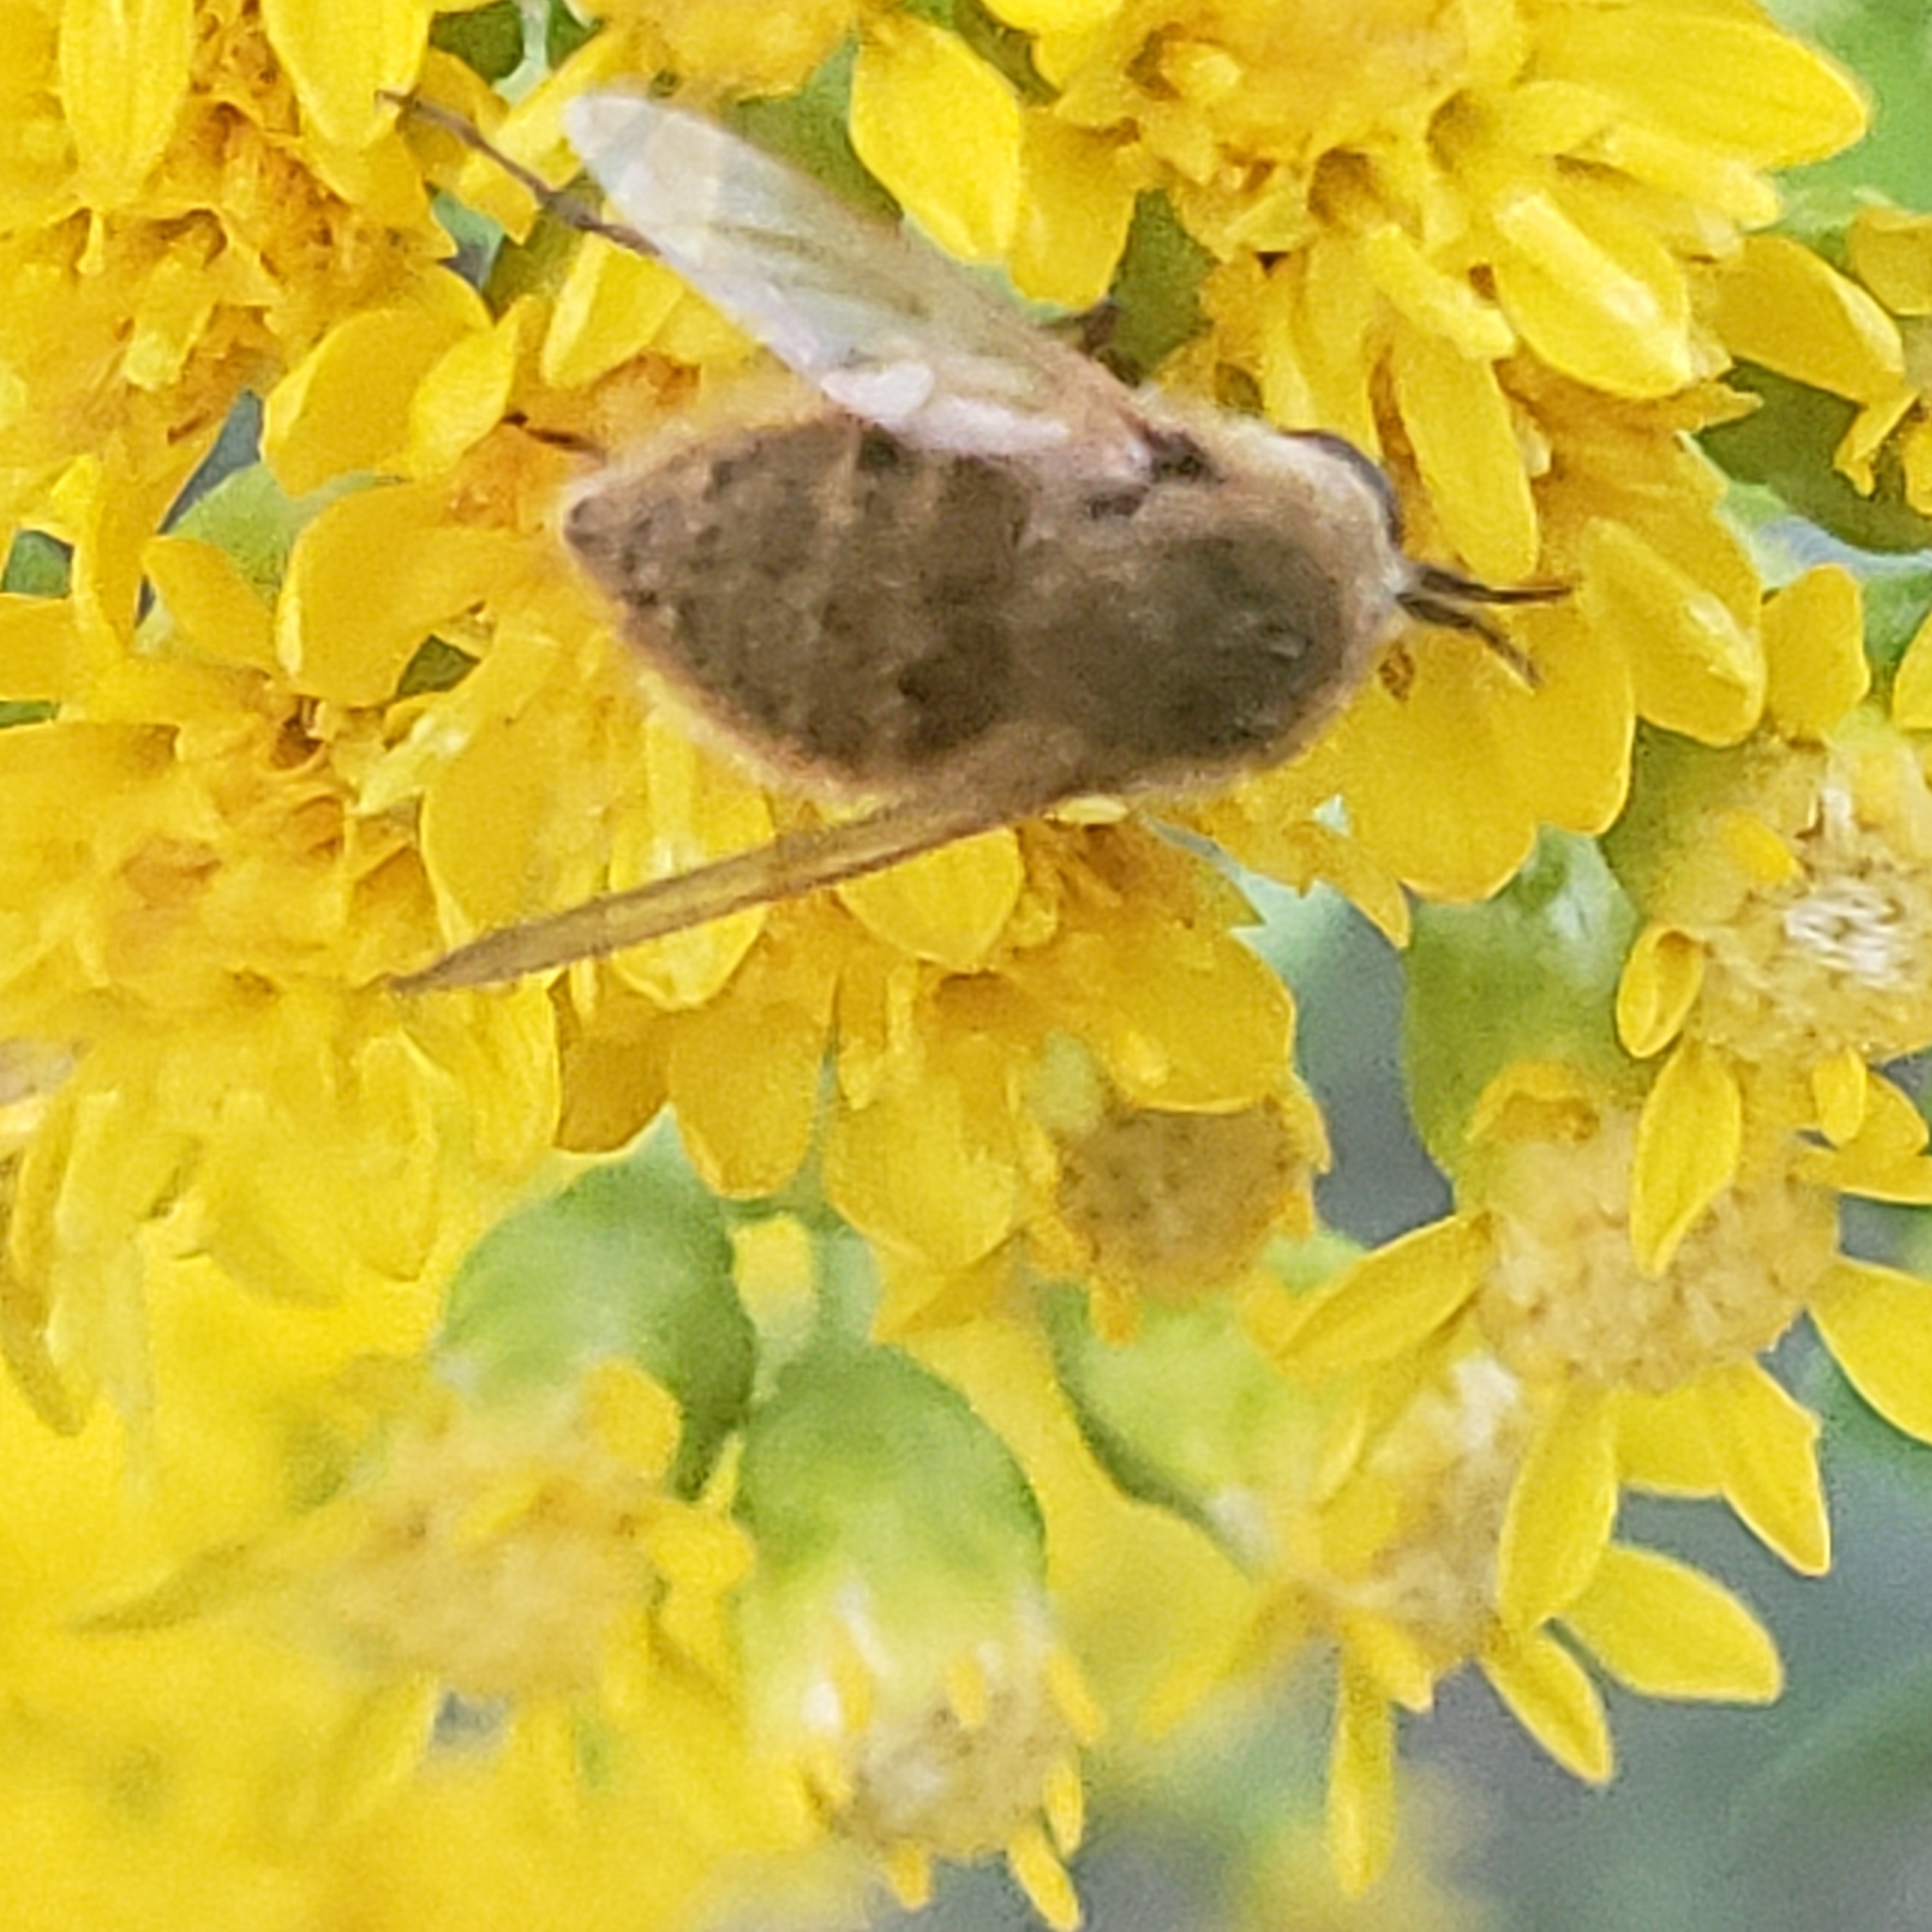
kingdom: Animalia
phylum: Arthropoda
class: Insecta
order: Diptera
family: Bombyliidae
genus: Sparnopolius
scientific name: Sparnopolius confusus
